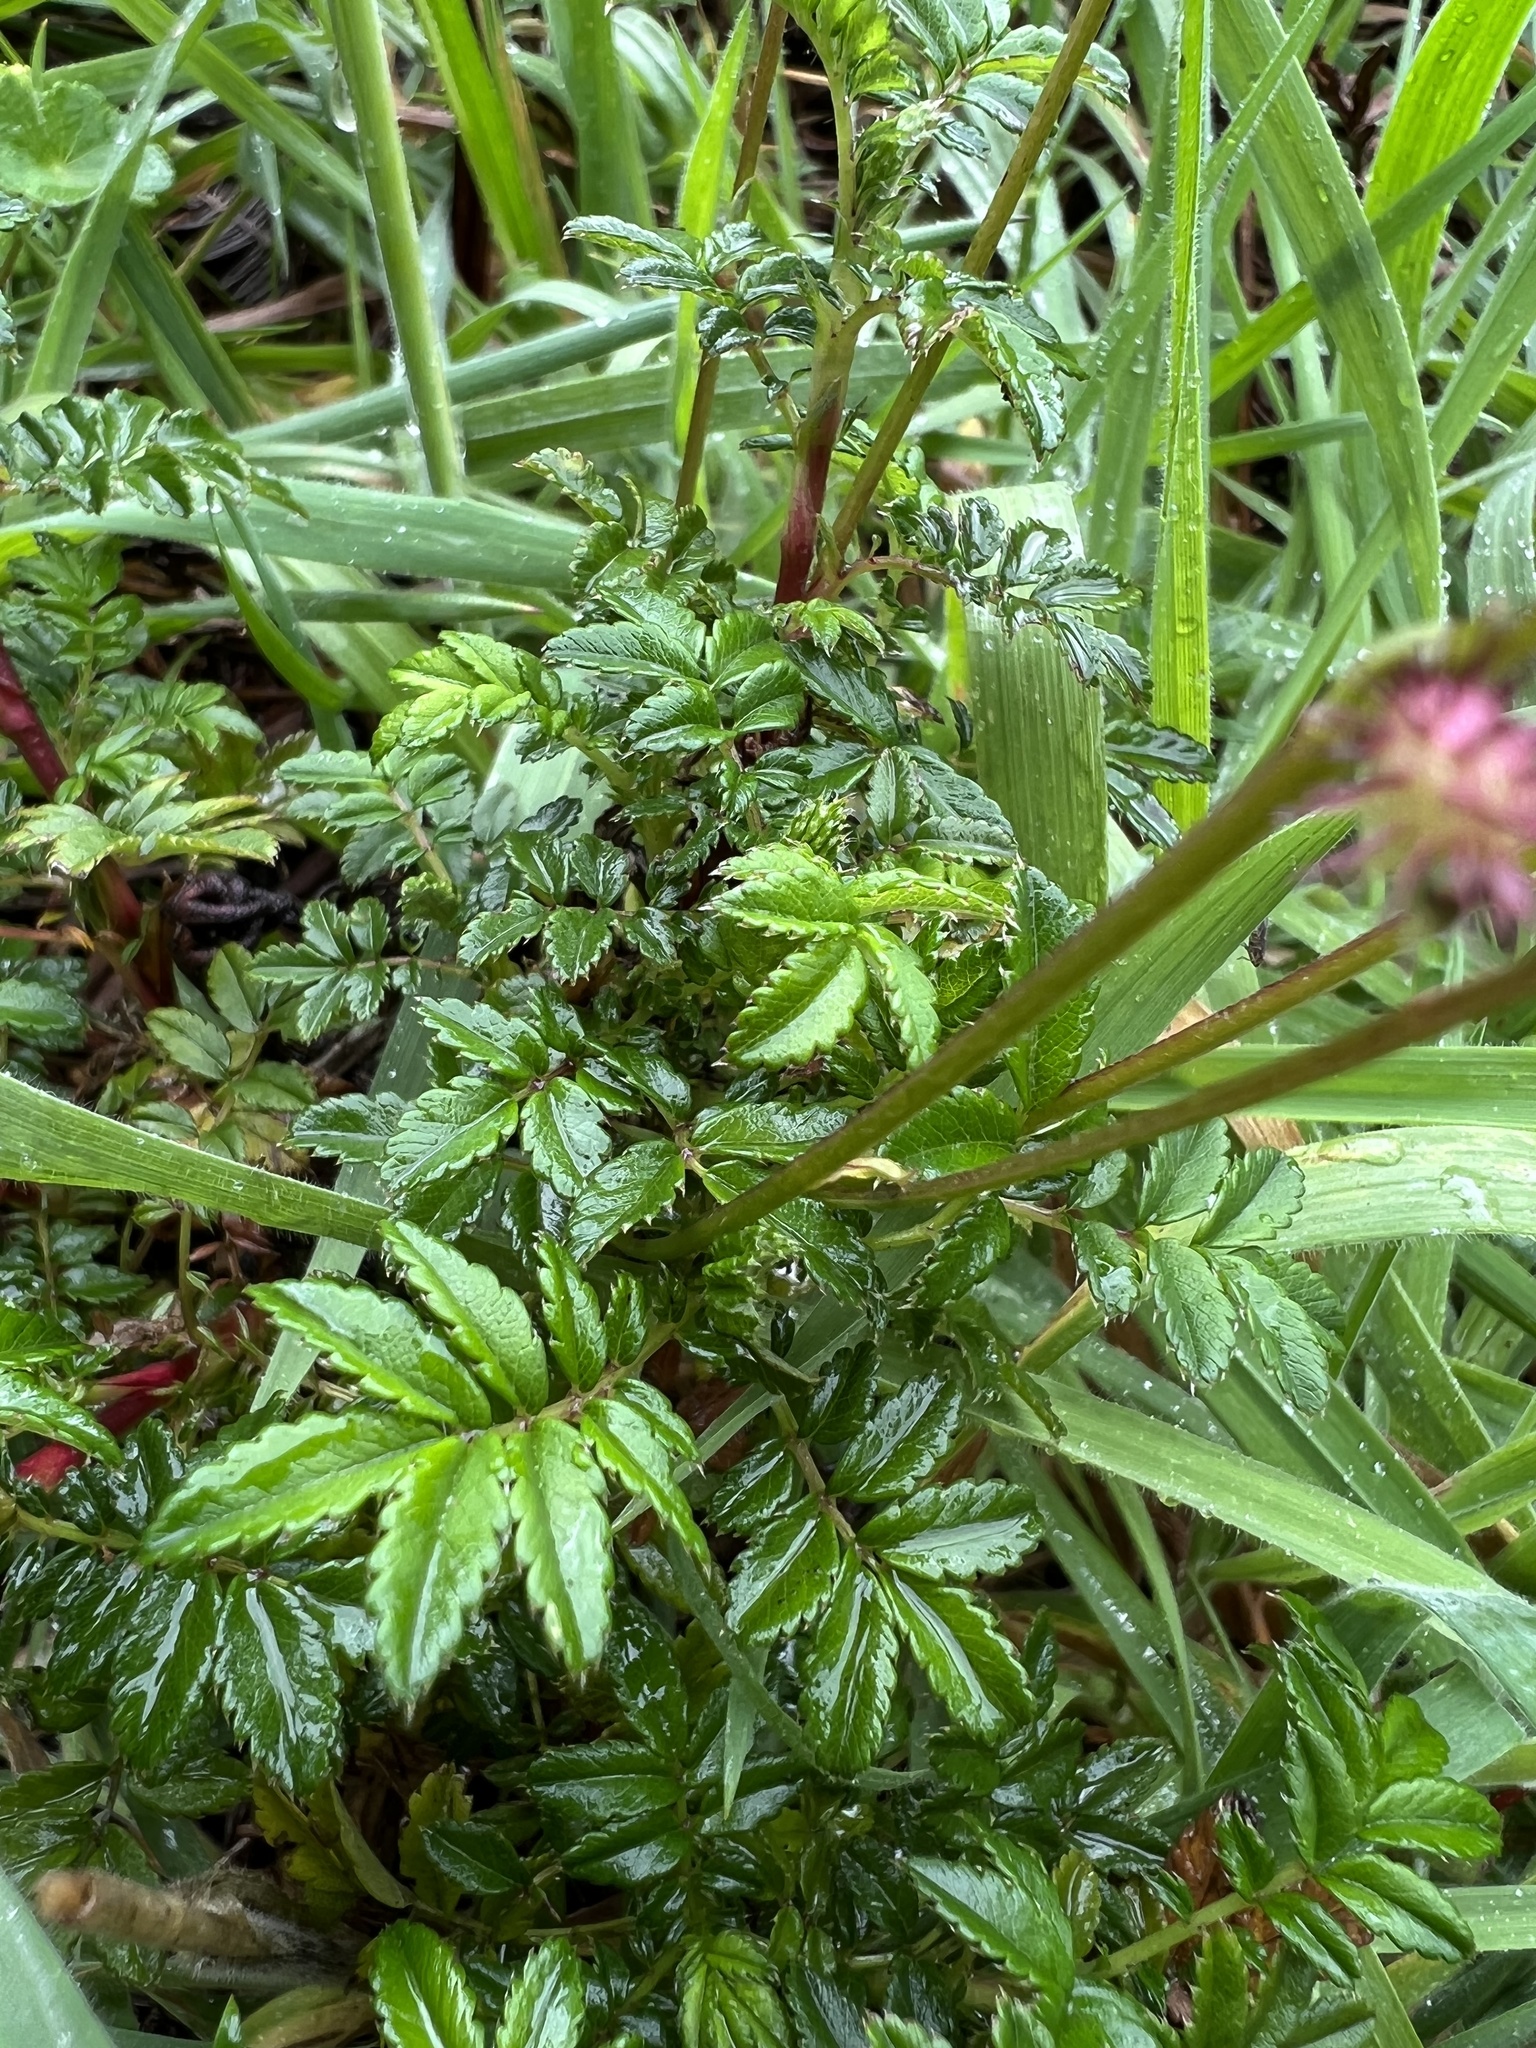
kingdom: Plantae
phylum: Tracheophyta
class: Magnoliopsida
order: Rosales
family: Rosaceae
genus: Acaena
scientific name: Acaena elongata
